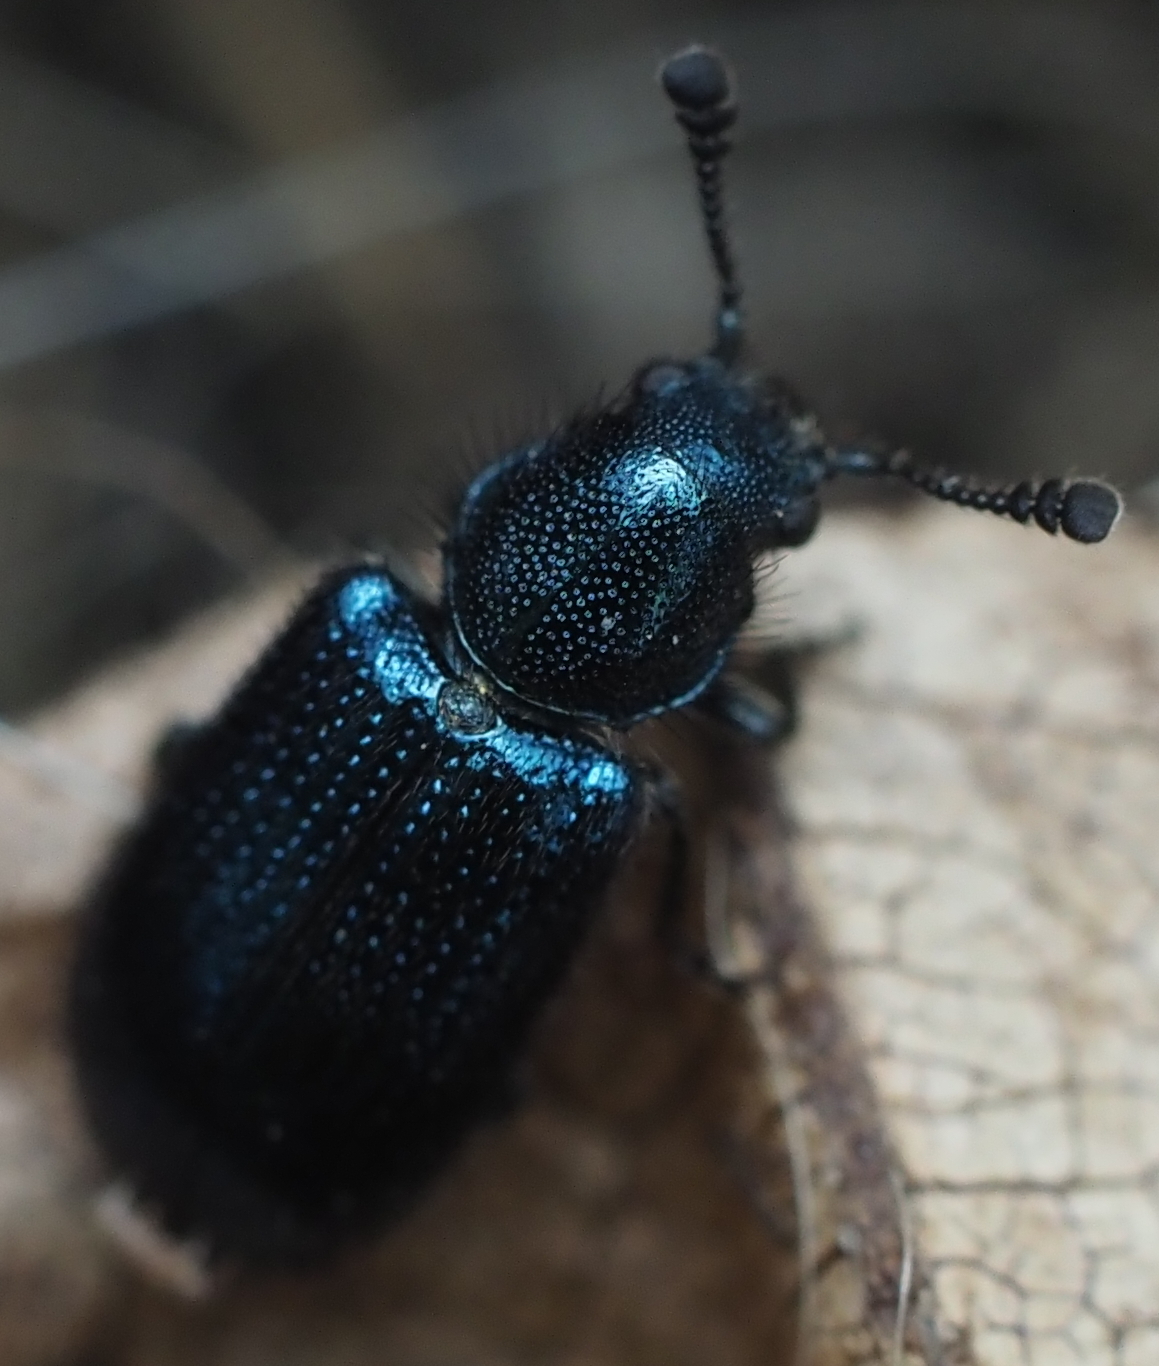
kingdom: Animalia
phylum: Arthropoda
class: Insecta
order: Coleoptera
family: Cleridae
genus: Necrobia
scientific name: Necrobia violacea
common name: Violet checkered beetle
